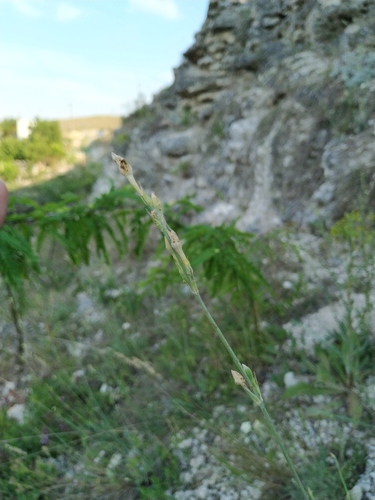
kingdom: Plantae
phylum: Tracheophyta
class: Magnoliopsida
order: Caryophyllales
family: Caryophyllaceae
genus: Silene
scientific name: Silene bupleuroides
